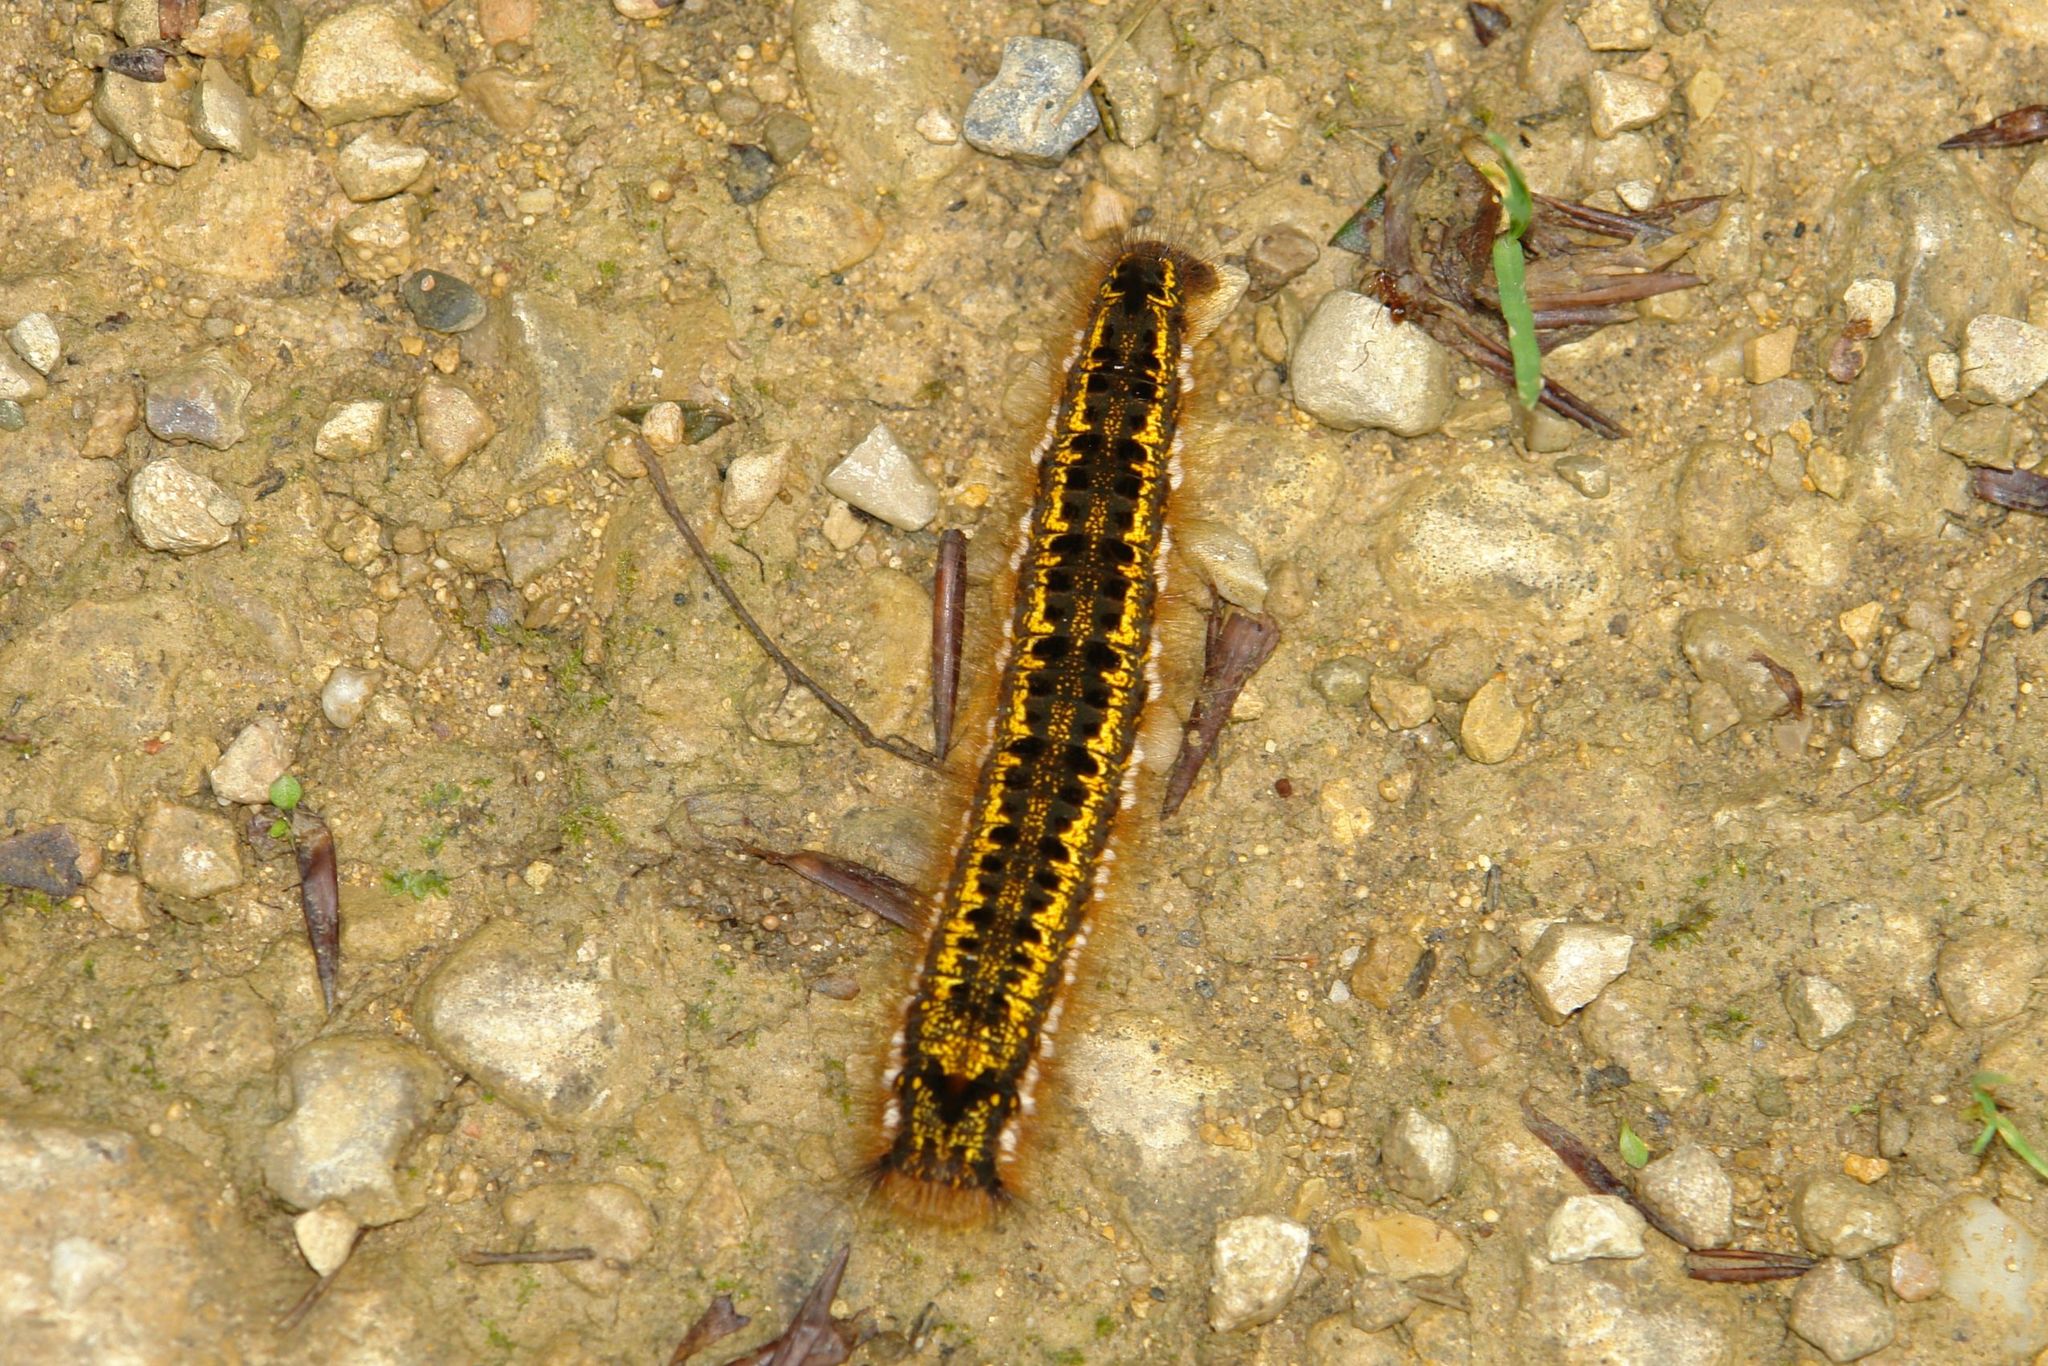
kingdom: Animalia
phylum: Arthropoda
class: Insecta
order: Lepidoptera
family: Lasiocampidae
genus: Euthrix
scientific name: Euthrix potatoria
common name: Drinker
